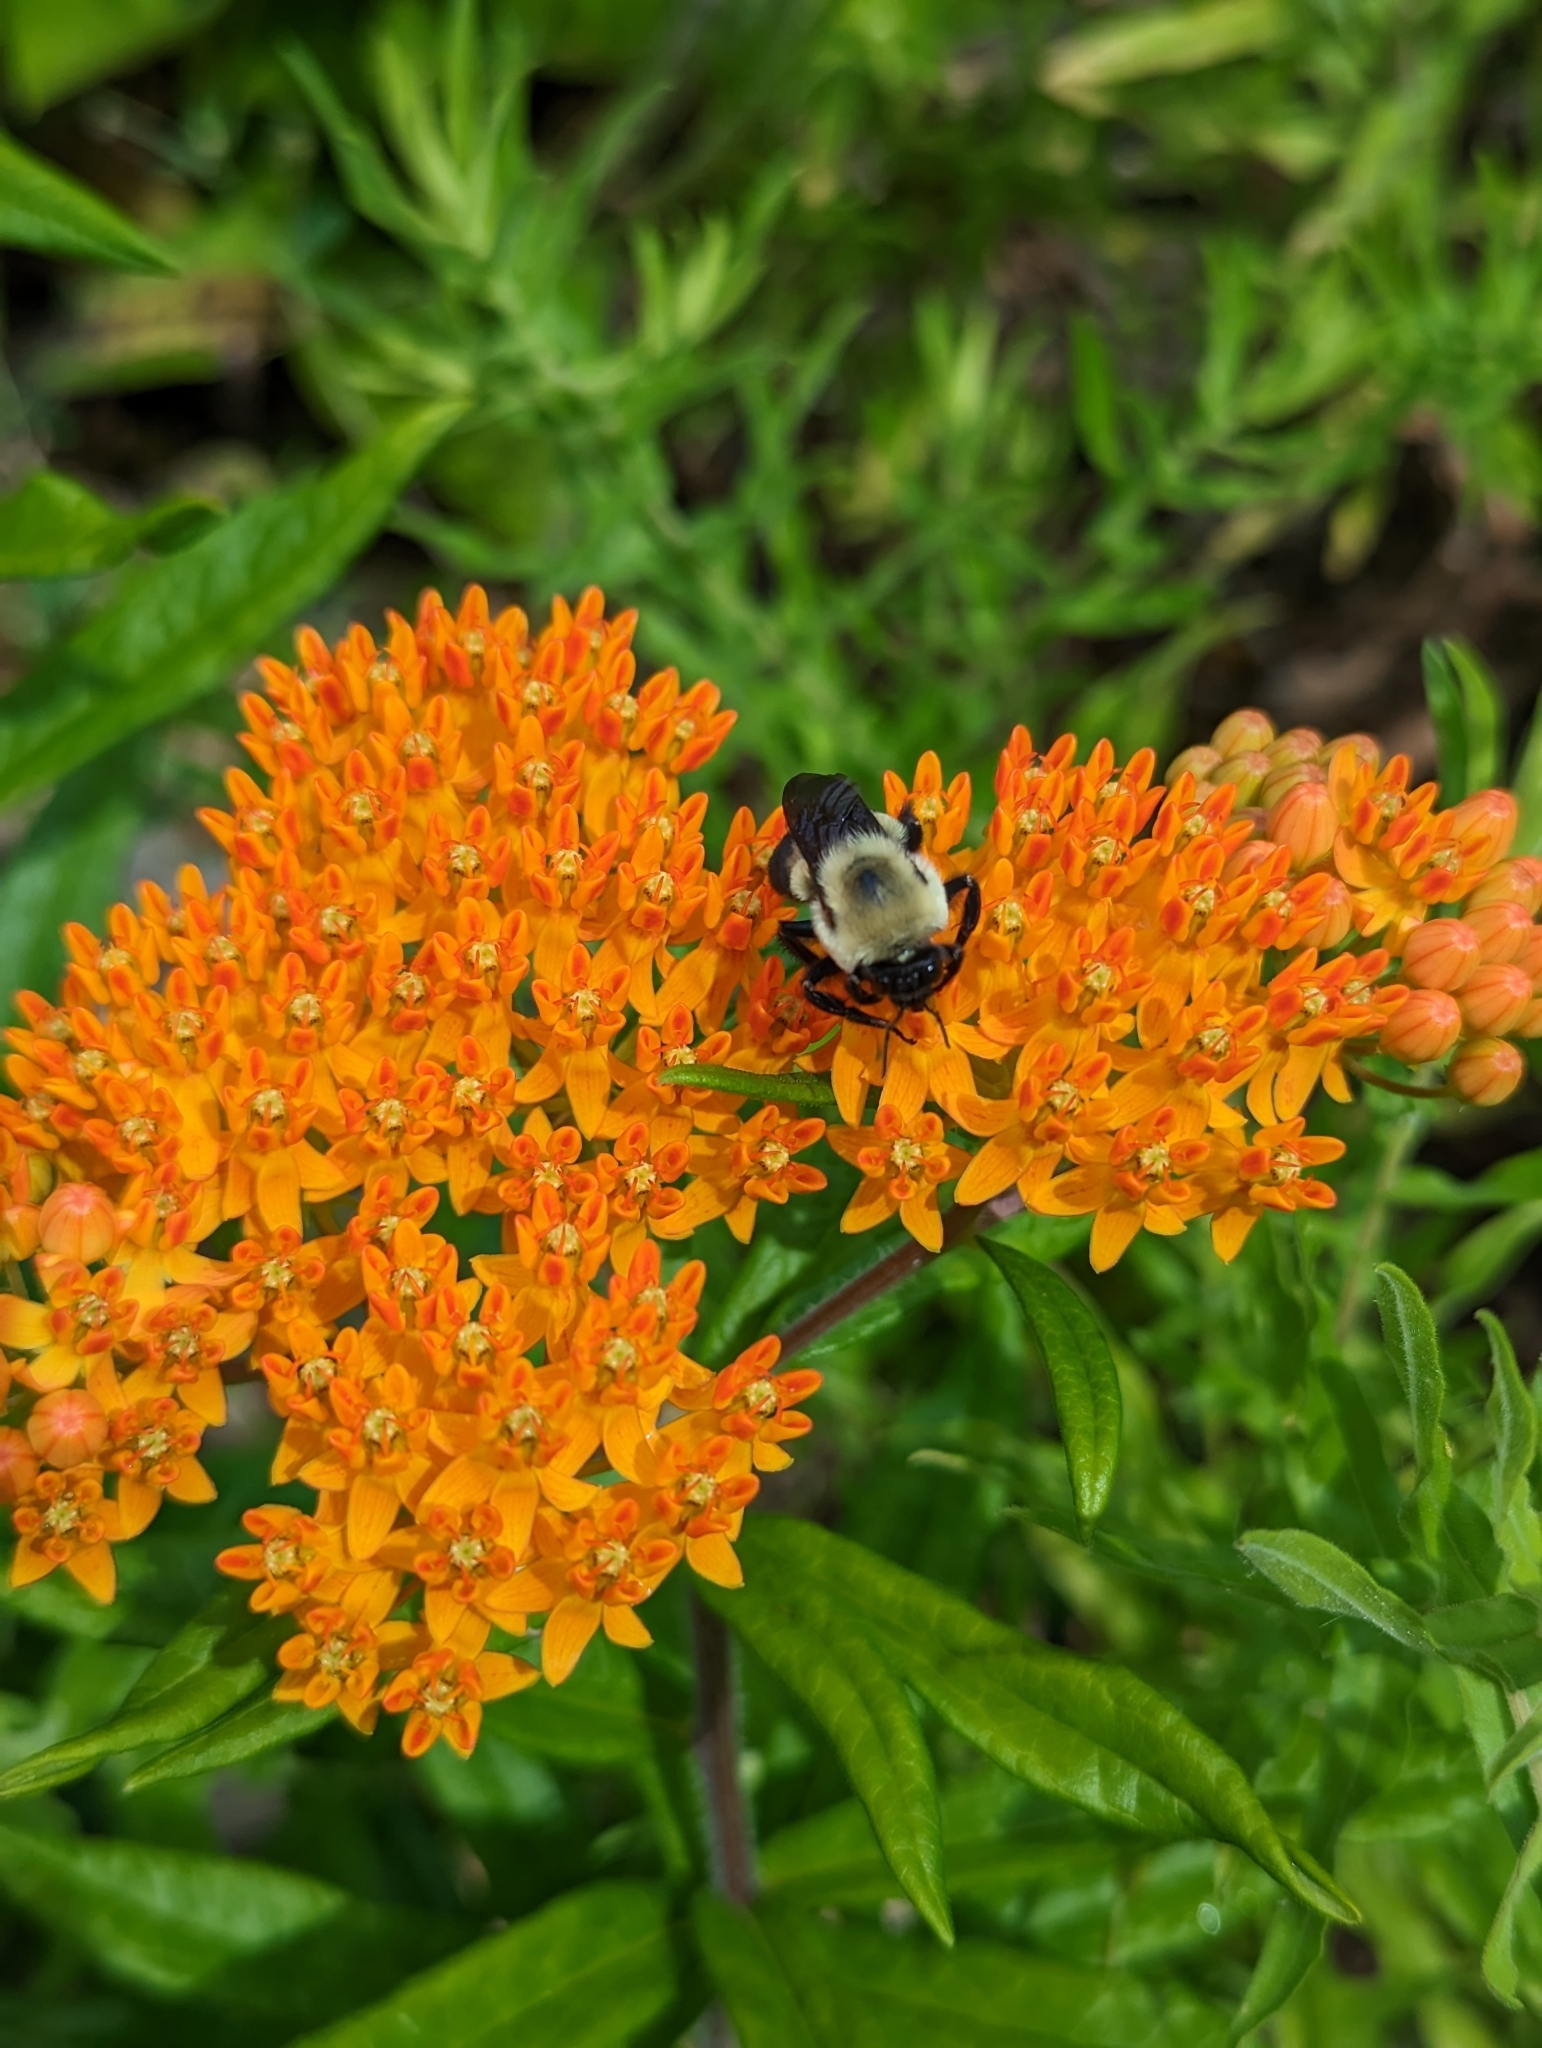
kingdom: Animalia
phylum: Arthropoda
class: Insecta
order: Hymenoptera
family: Apidae
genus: Bombus
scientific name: Bombus griseocollis
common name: Brown-belted bumble bee
